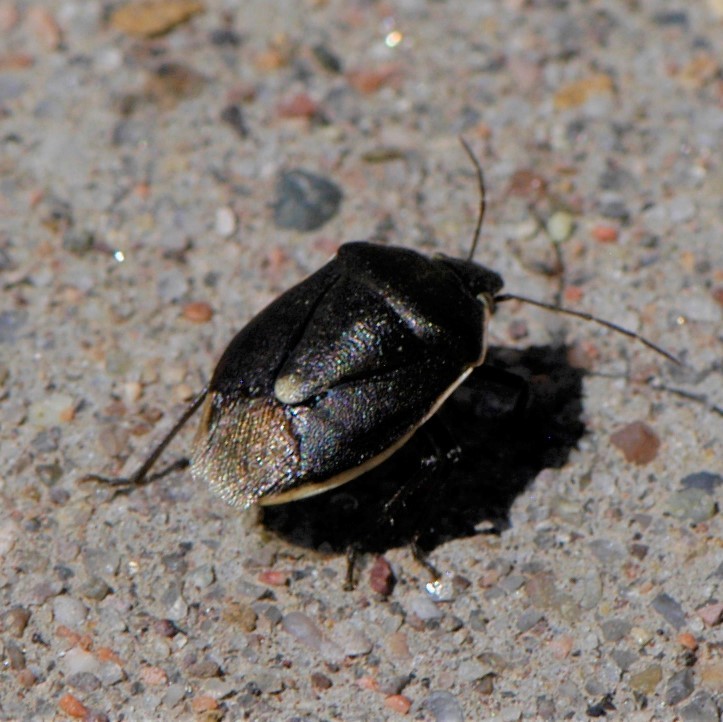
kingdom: Animalia
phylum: Arthropoda
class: Insecta
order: Hemiptera
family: Pentatomidae
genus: Chlorochroa
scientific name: Chlorochroa ligata
